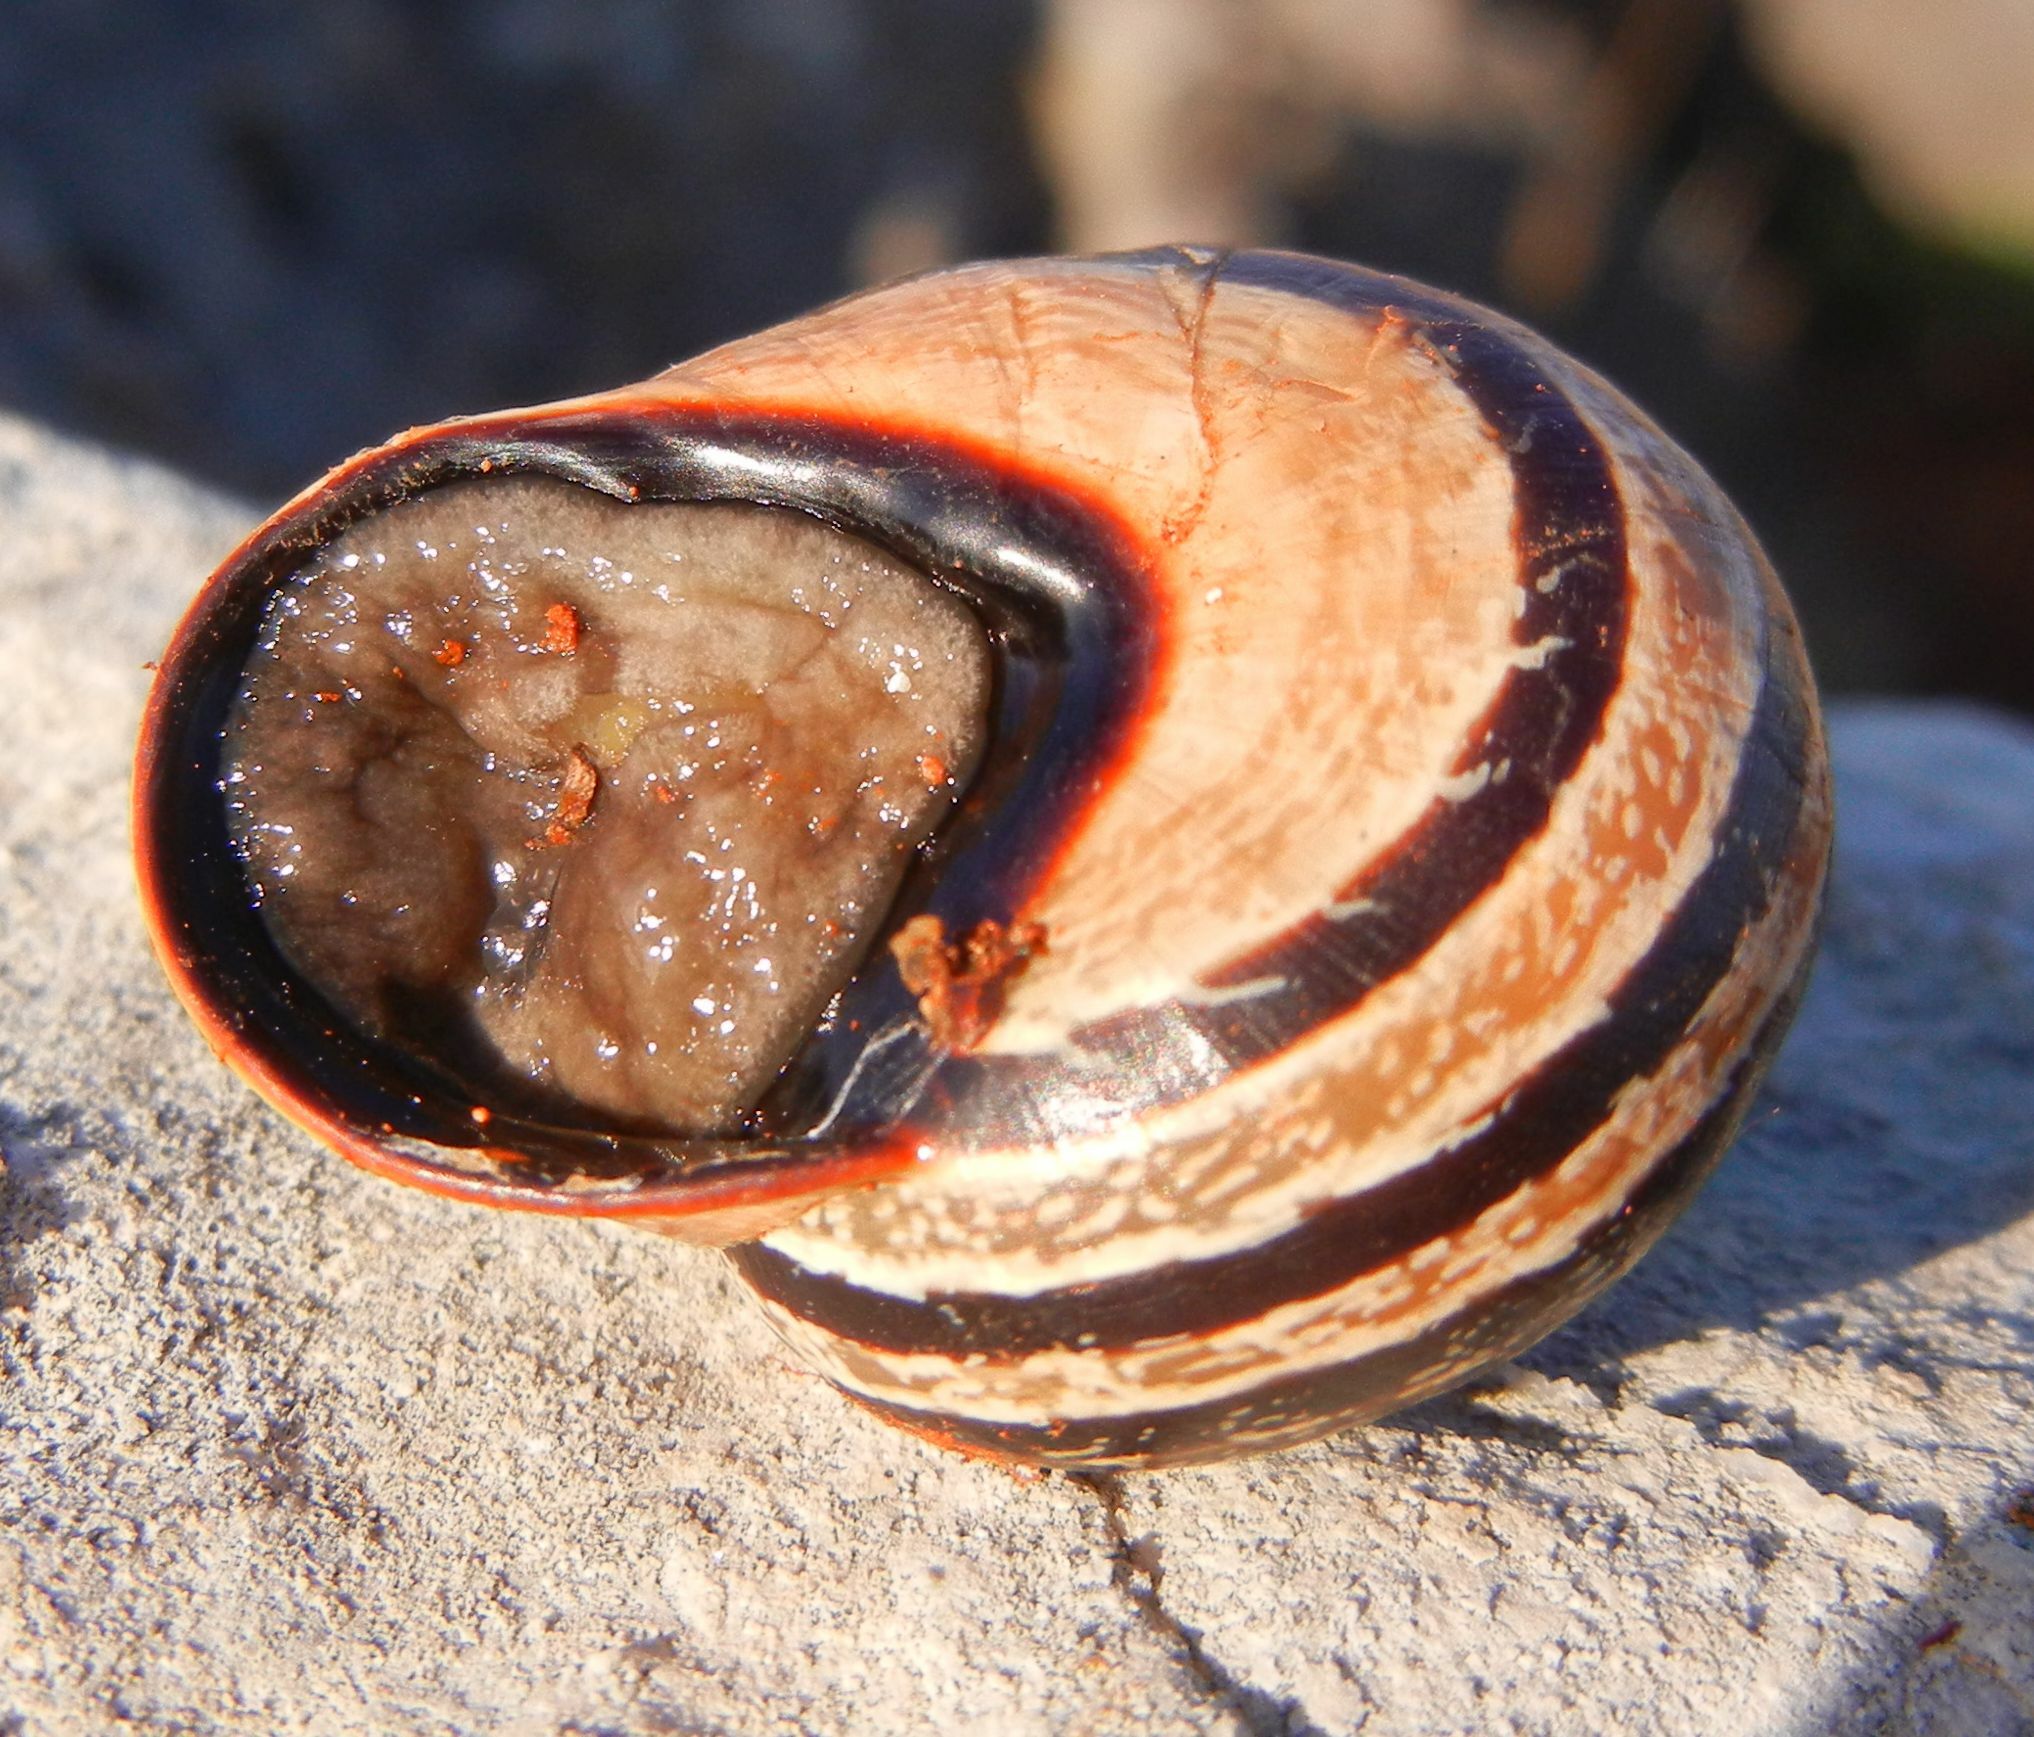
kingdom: Animalia
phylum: Mollusca
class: Gastropoda
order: Stylommatophora
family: Helicidae
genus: Otala
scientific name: Otala lactea
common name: Milk snail
